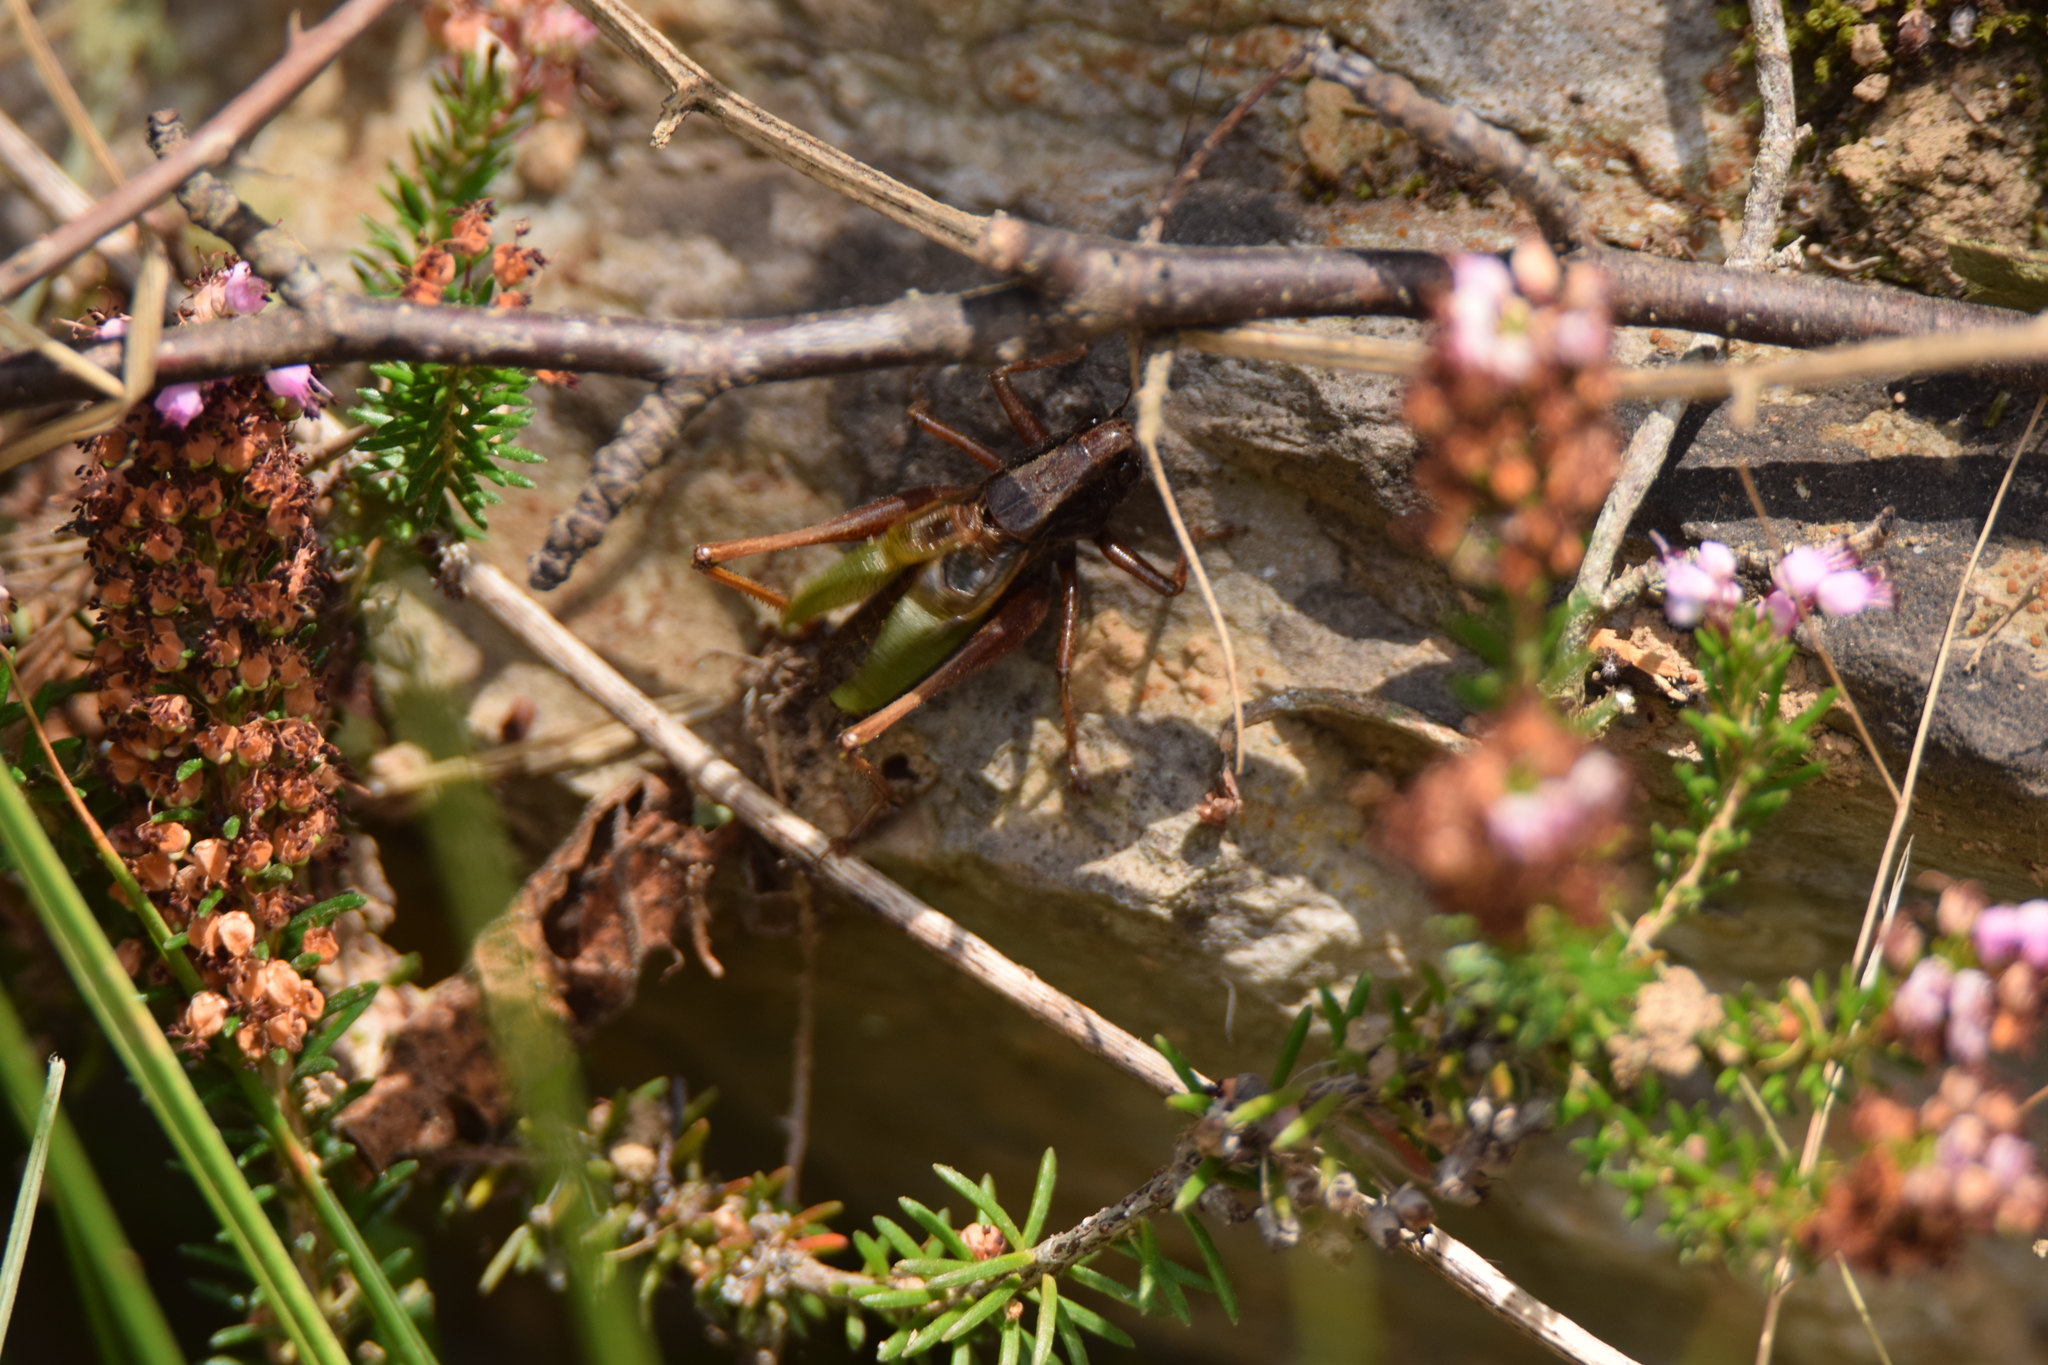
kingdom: Animalia
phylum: Arthropoda
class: Insecta
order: Orthoptera
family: Tettigoniidae
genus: Zeuneriana
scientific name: Zeuneriana abbreviata
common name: Basque bush-cricket
